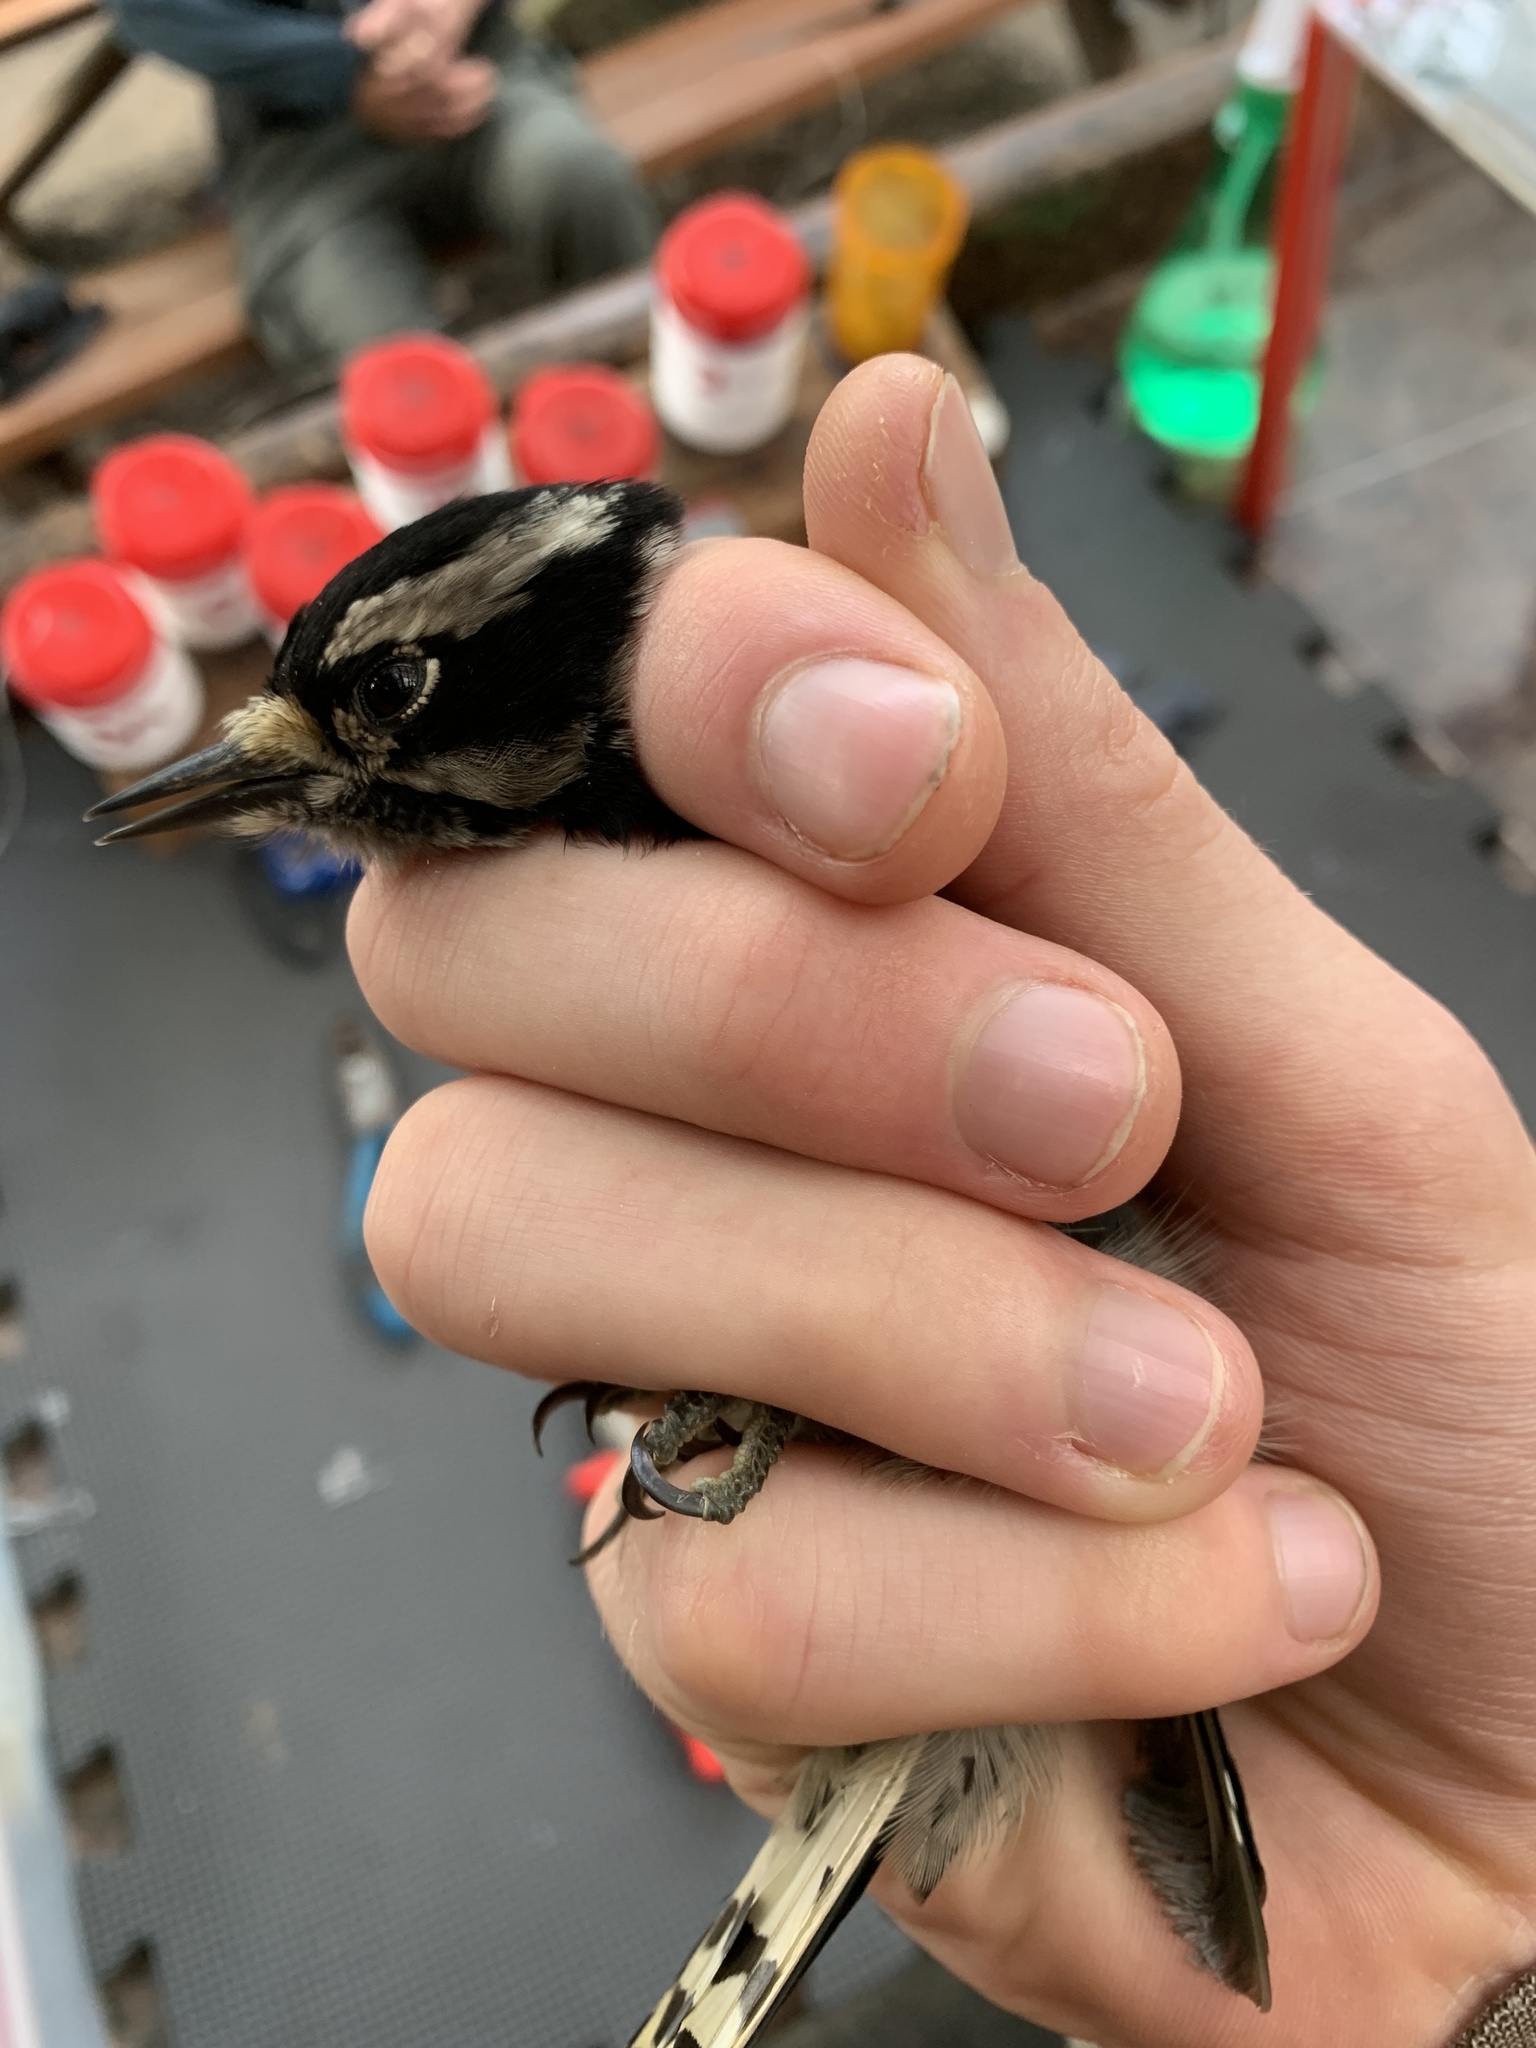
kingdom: Animalia
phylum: Chordata
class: Aves
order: Piciformes
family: Picidae
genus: Dryobates
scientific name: Dryobates pubescens
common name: Downy woodpecker
